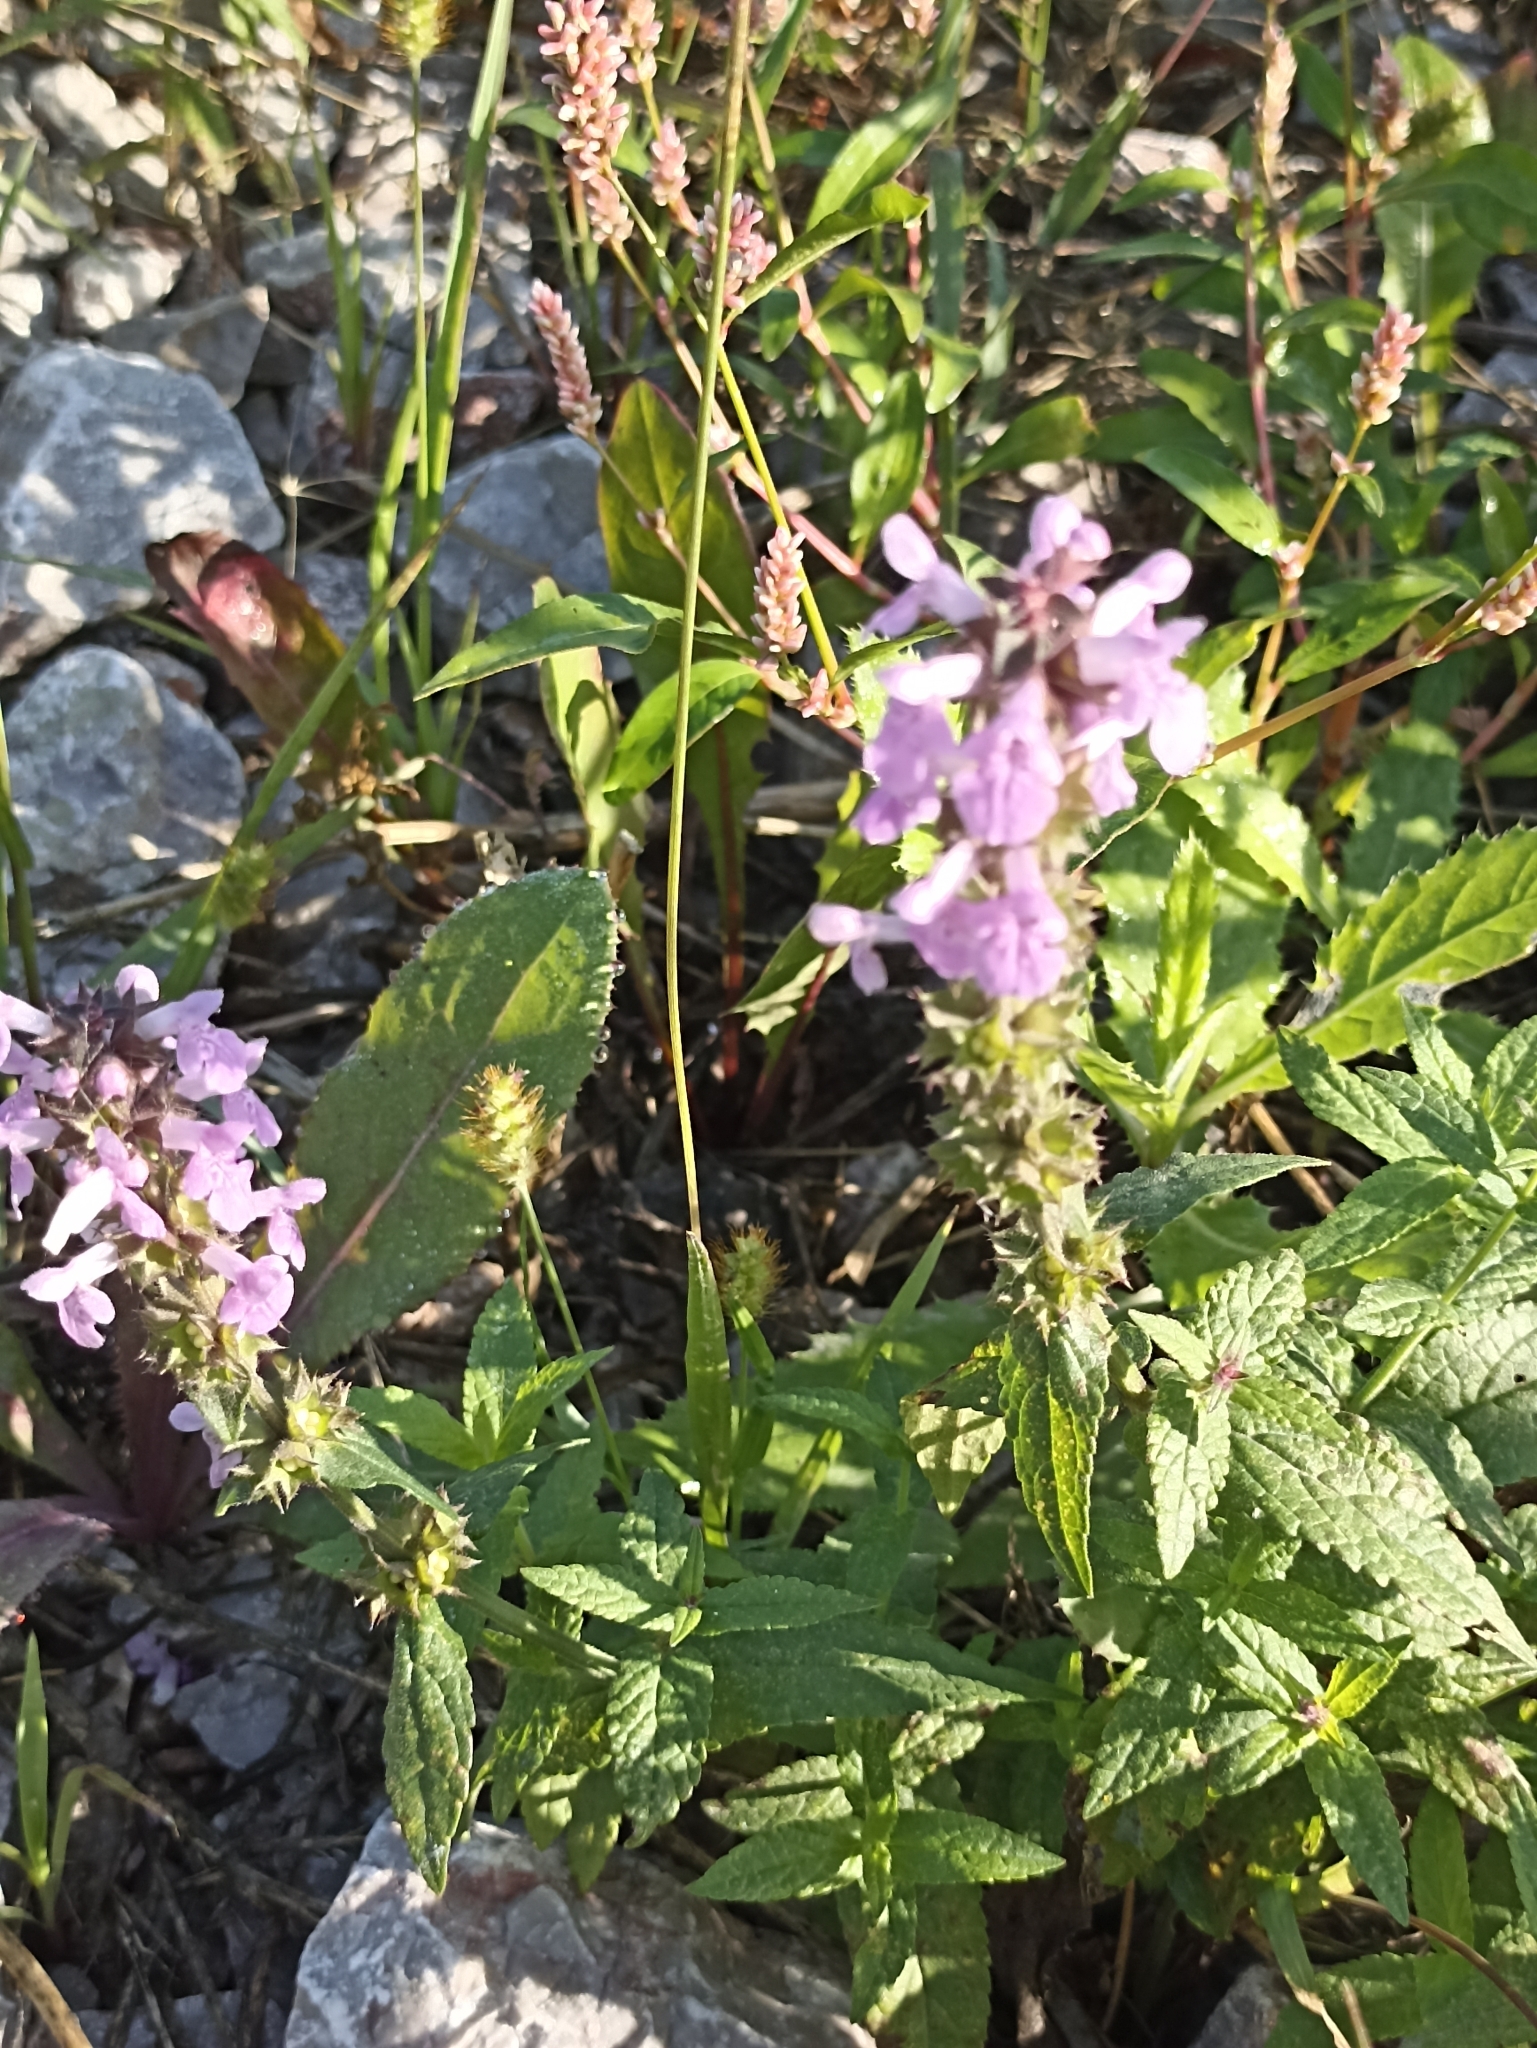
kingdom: Plantae
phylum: Tracheophyta
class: Magnoliopsida
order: Lamiales
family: Lamiaceae
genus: Stachys
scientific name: Stachys palustris
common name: Marsh woundwort
